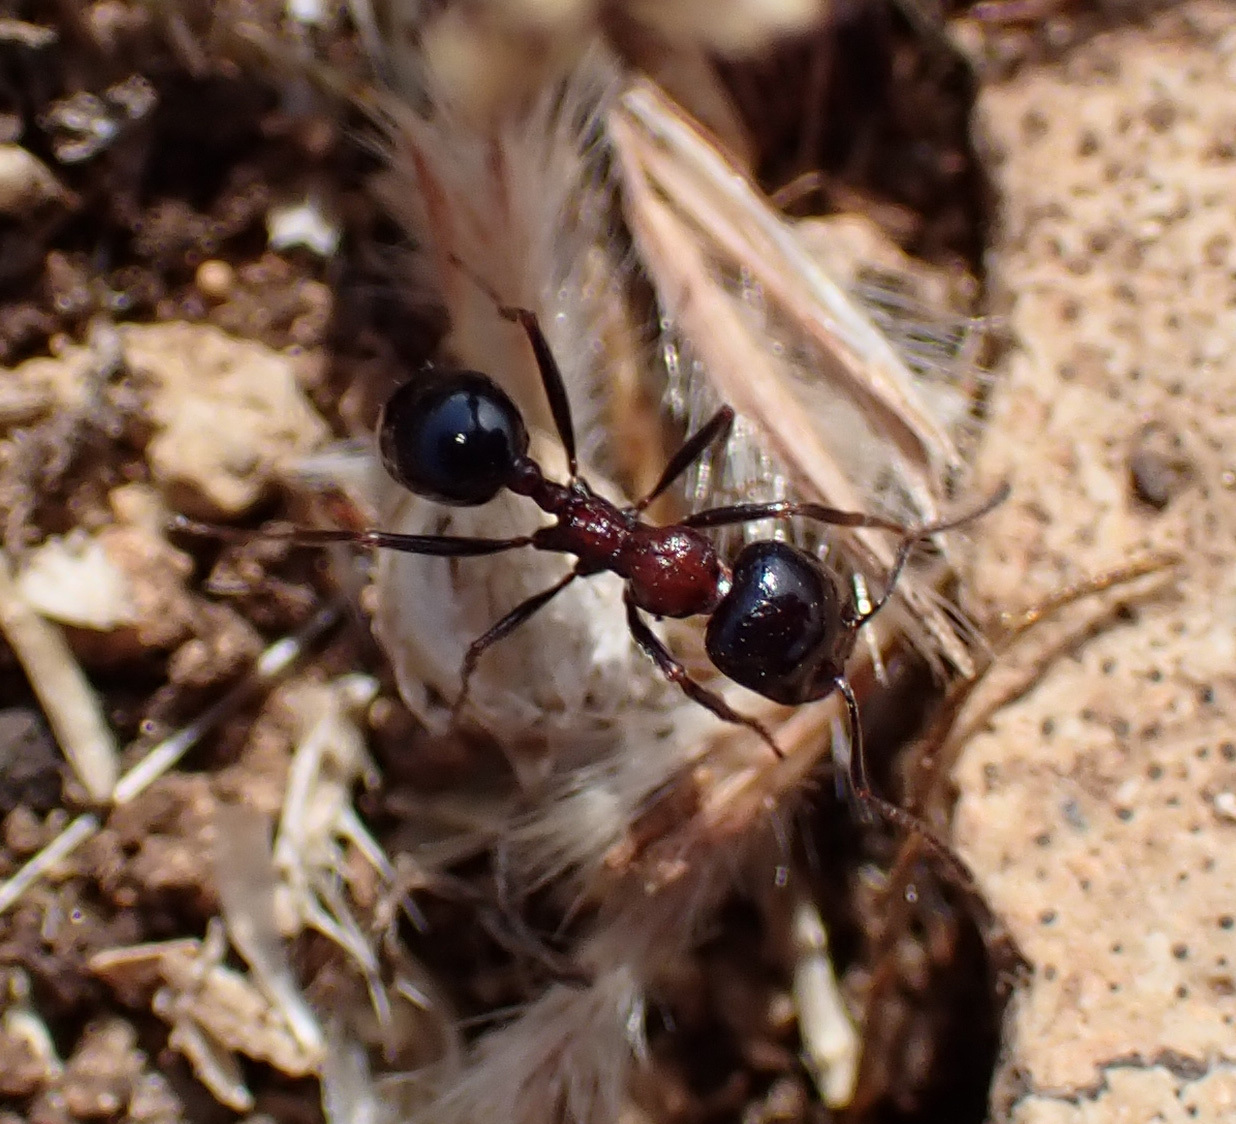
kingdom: Animalia
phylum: Arthropoda
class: Insecta
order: Hymenoptera
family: Formicidae
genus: Messor
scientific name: Messor wasmanni
